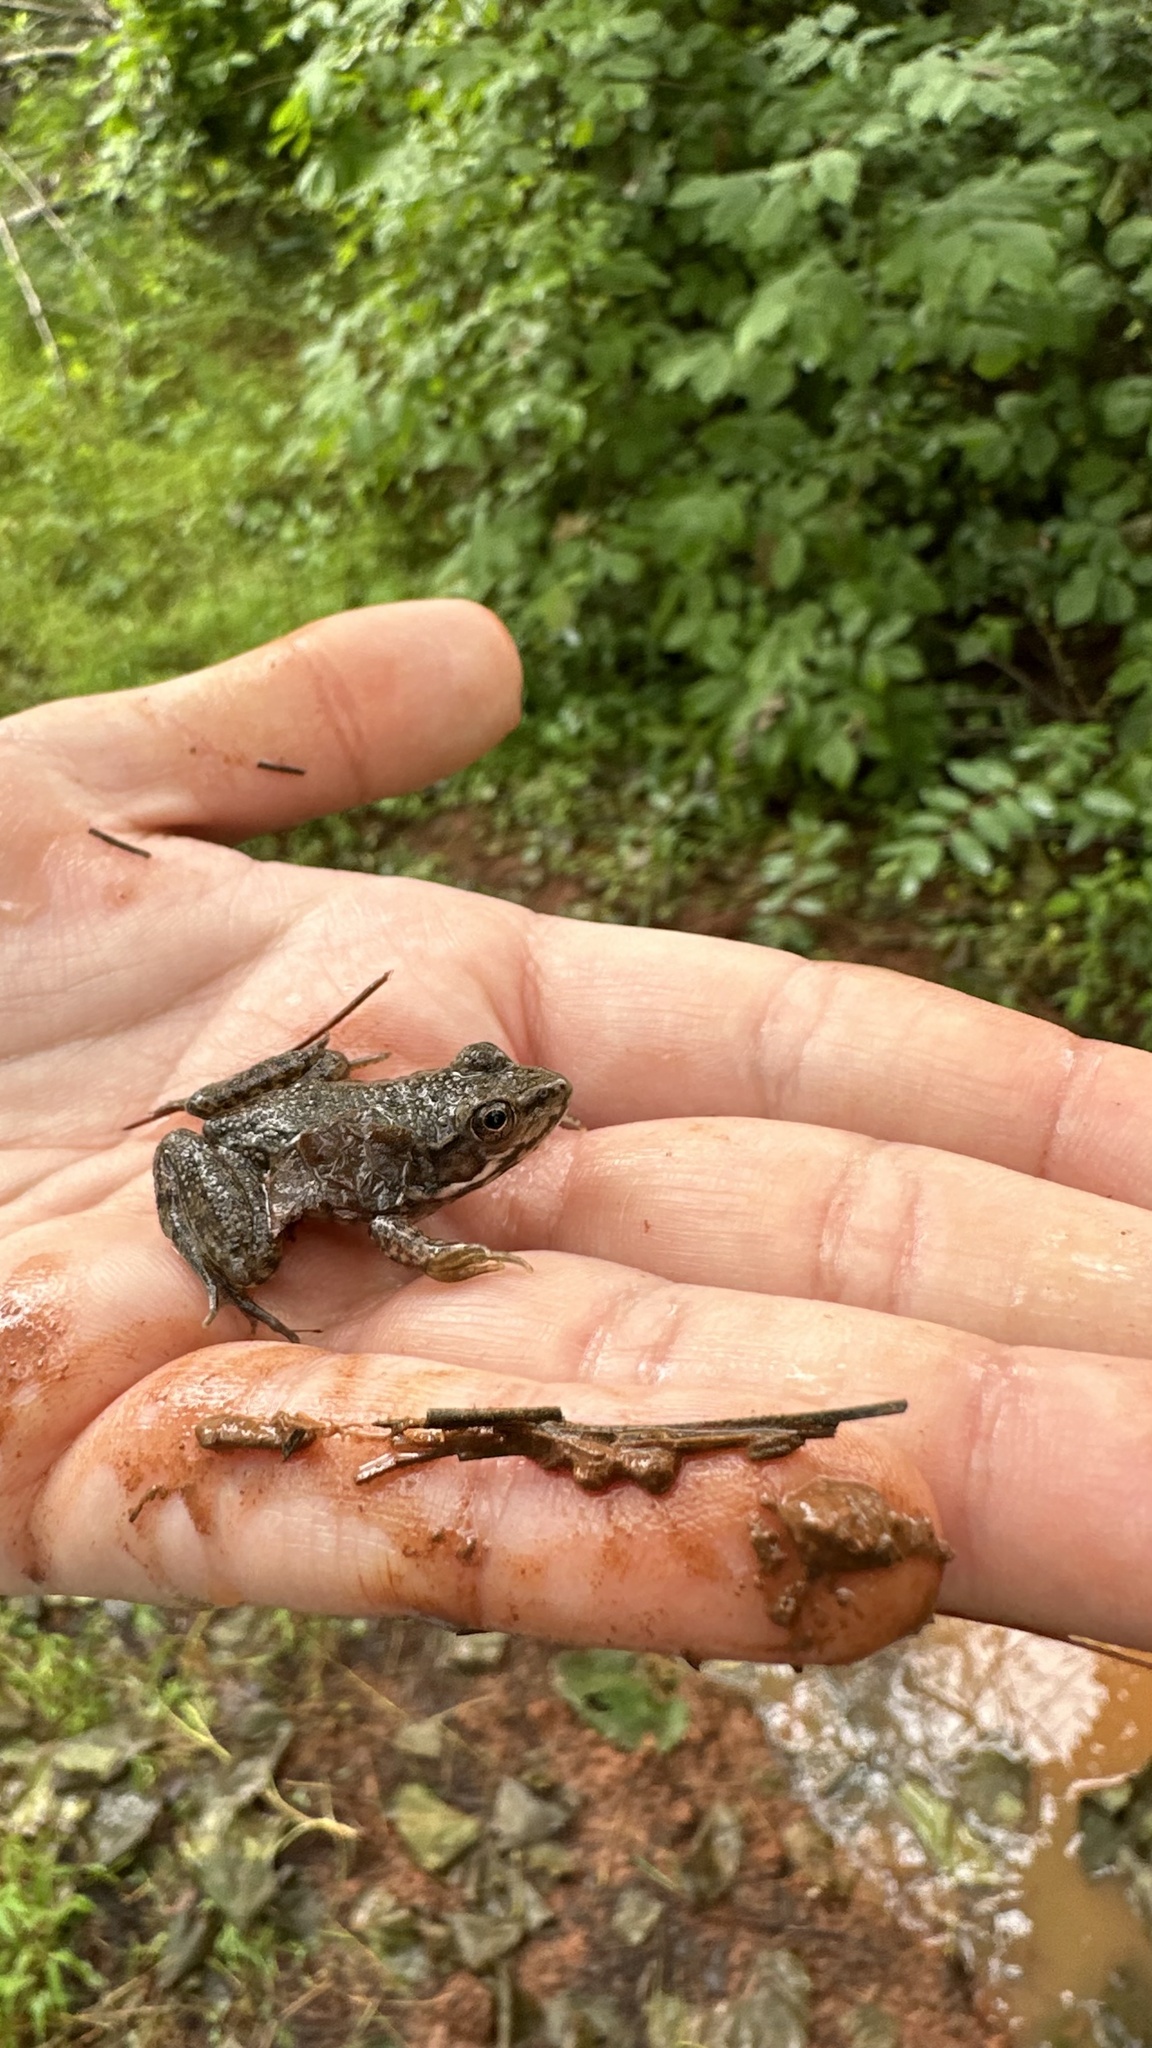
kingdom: Animalia
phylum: Chordata
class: Amphibia
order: Anura
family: Ranidae
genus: Lithobates
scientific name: Lithobates clamitans
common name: Green frog
